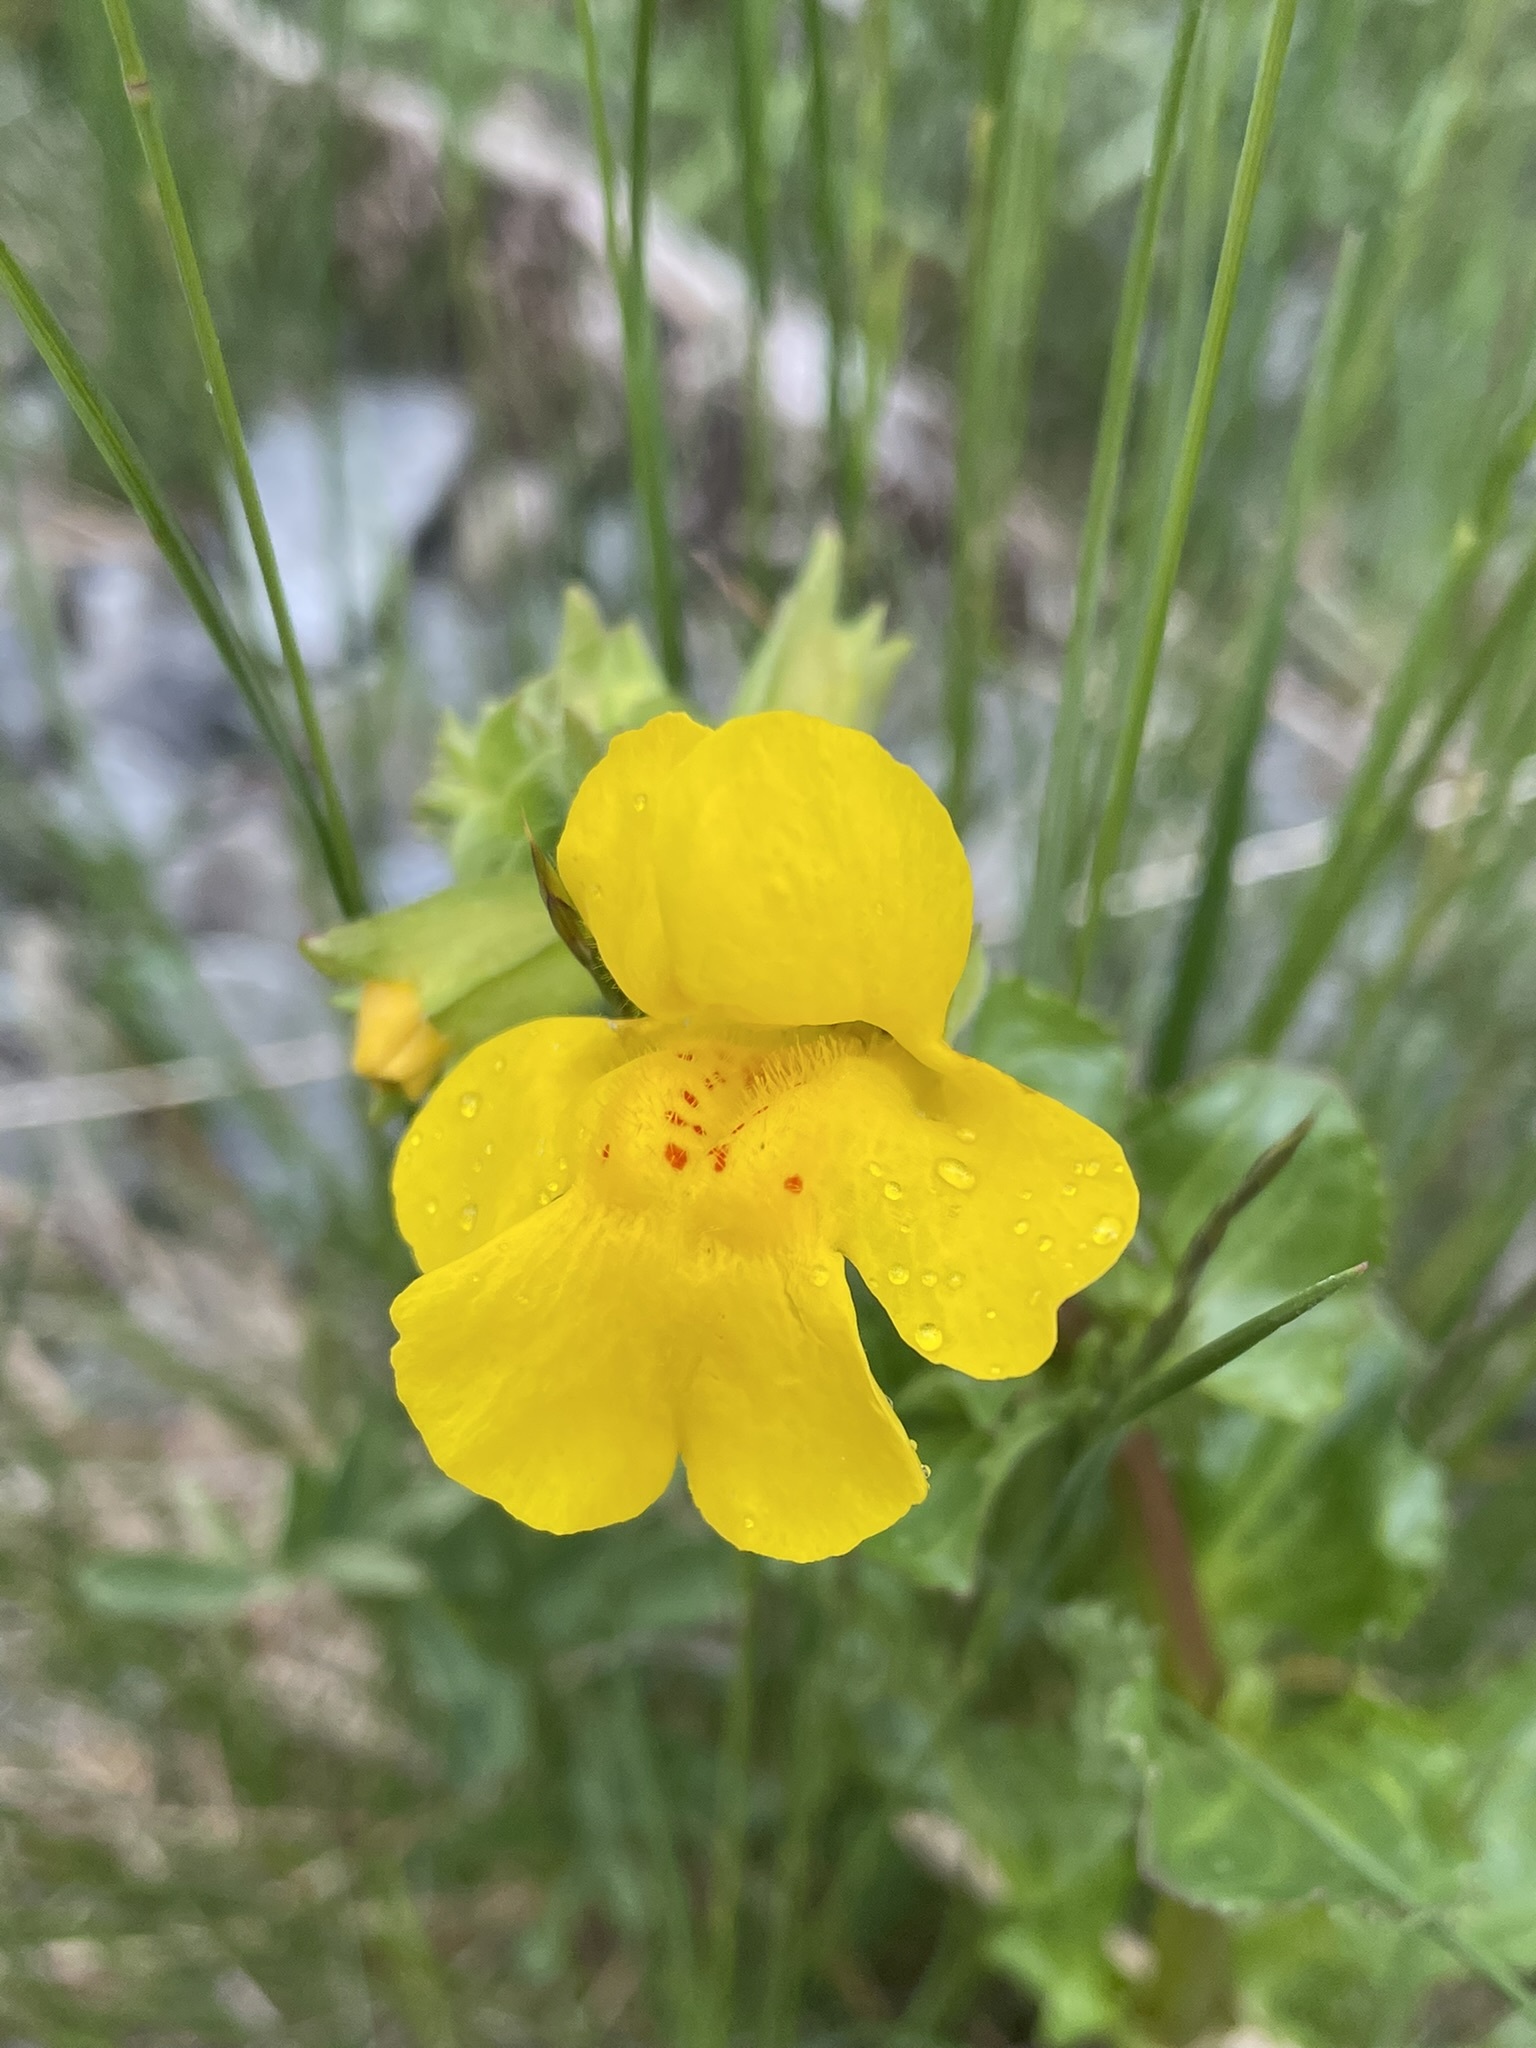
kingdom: Plantae
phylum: Tracheophyta
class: Magnoliopsida
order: Lamiales
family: Phrymaceae
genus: Erythranthe
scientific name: Erythranthe guttata
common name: Monkeyflower
